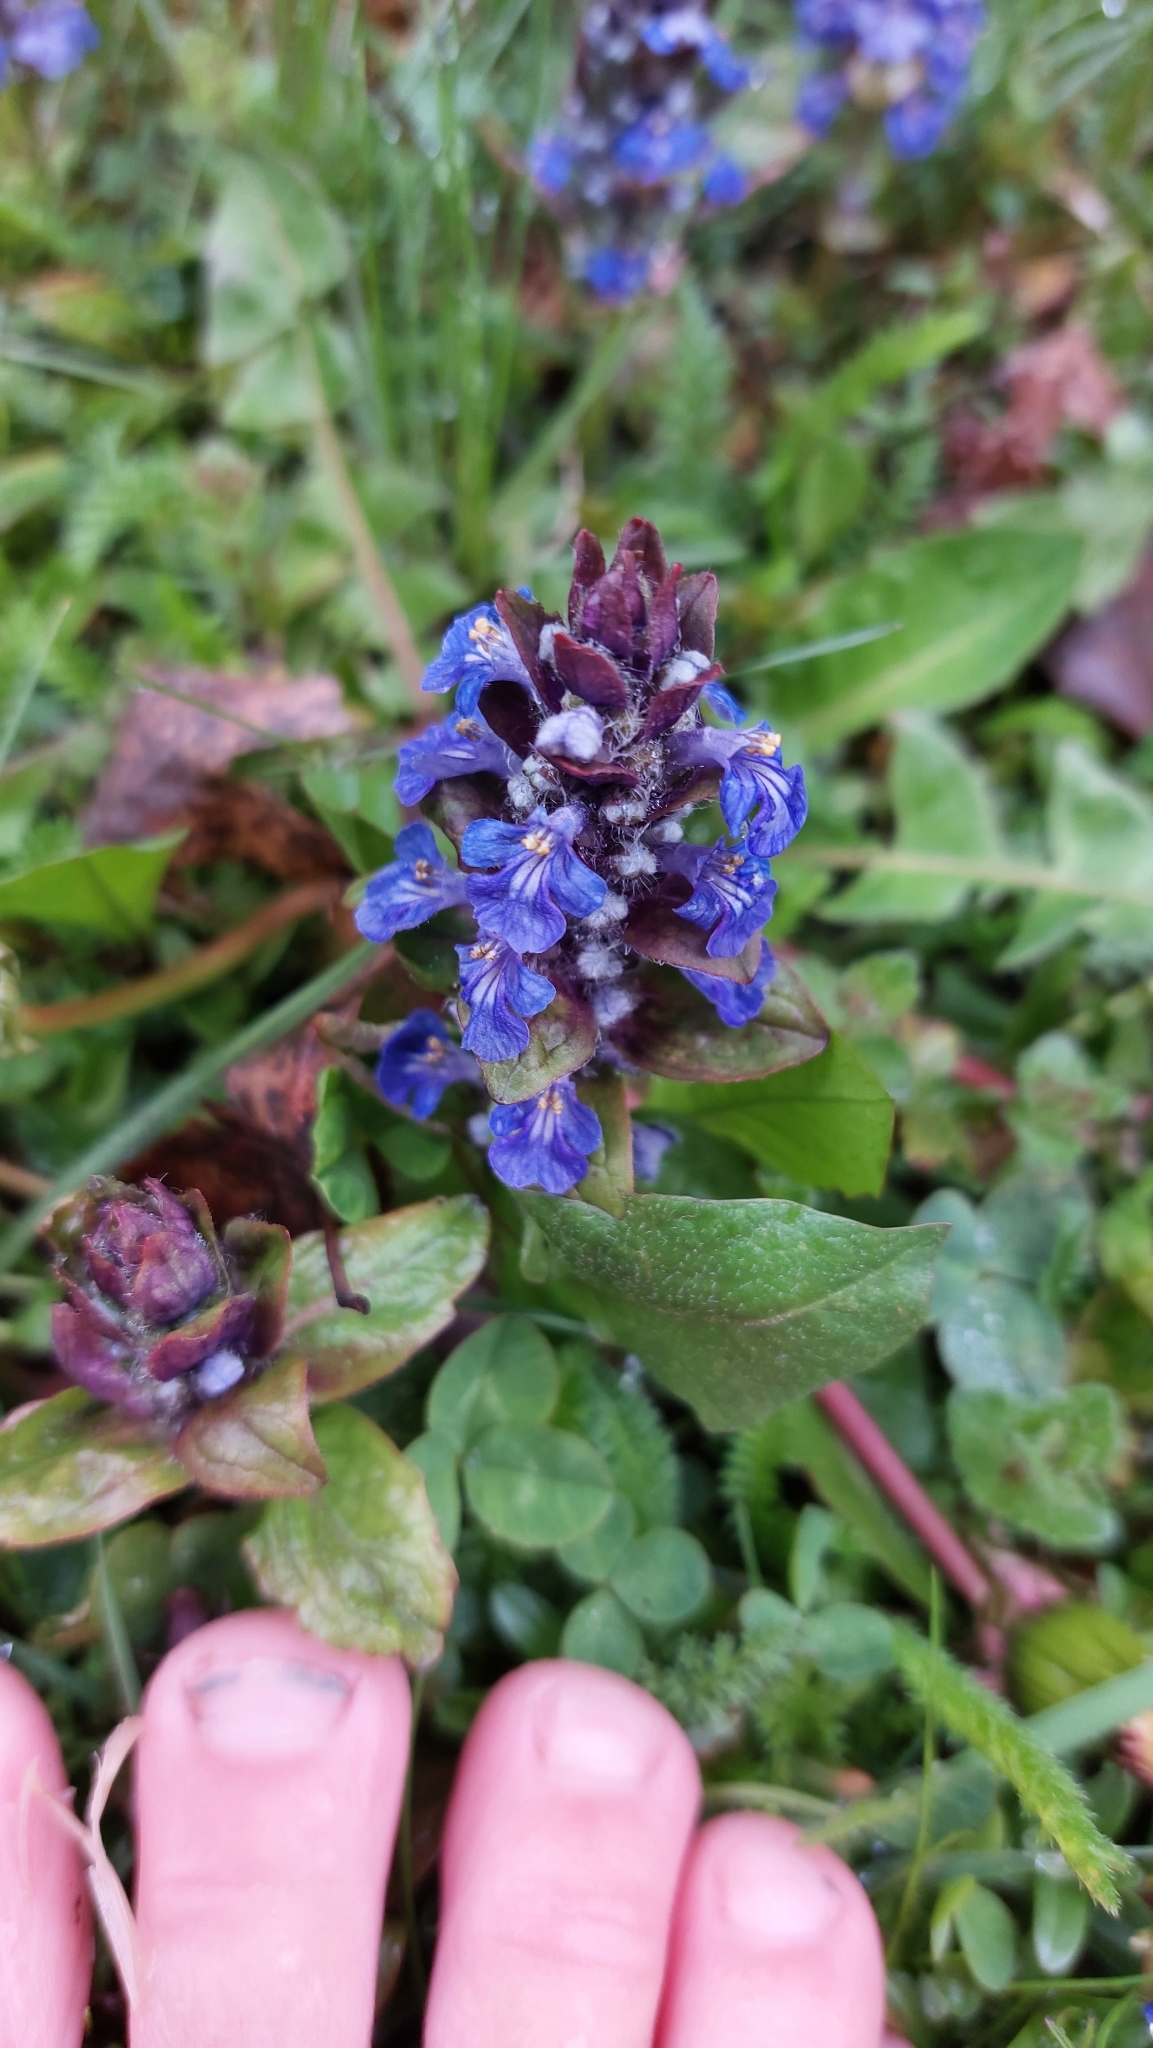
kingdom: Plantae
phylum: Tracheophyta
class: Magnoliopsida
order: Lamiales
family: Lamiaceae
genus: Ajuga
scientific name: Ajuga reptans
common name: Bugle
